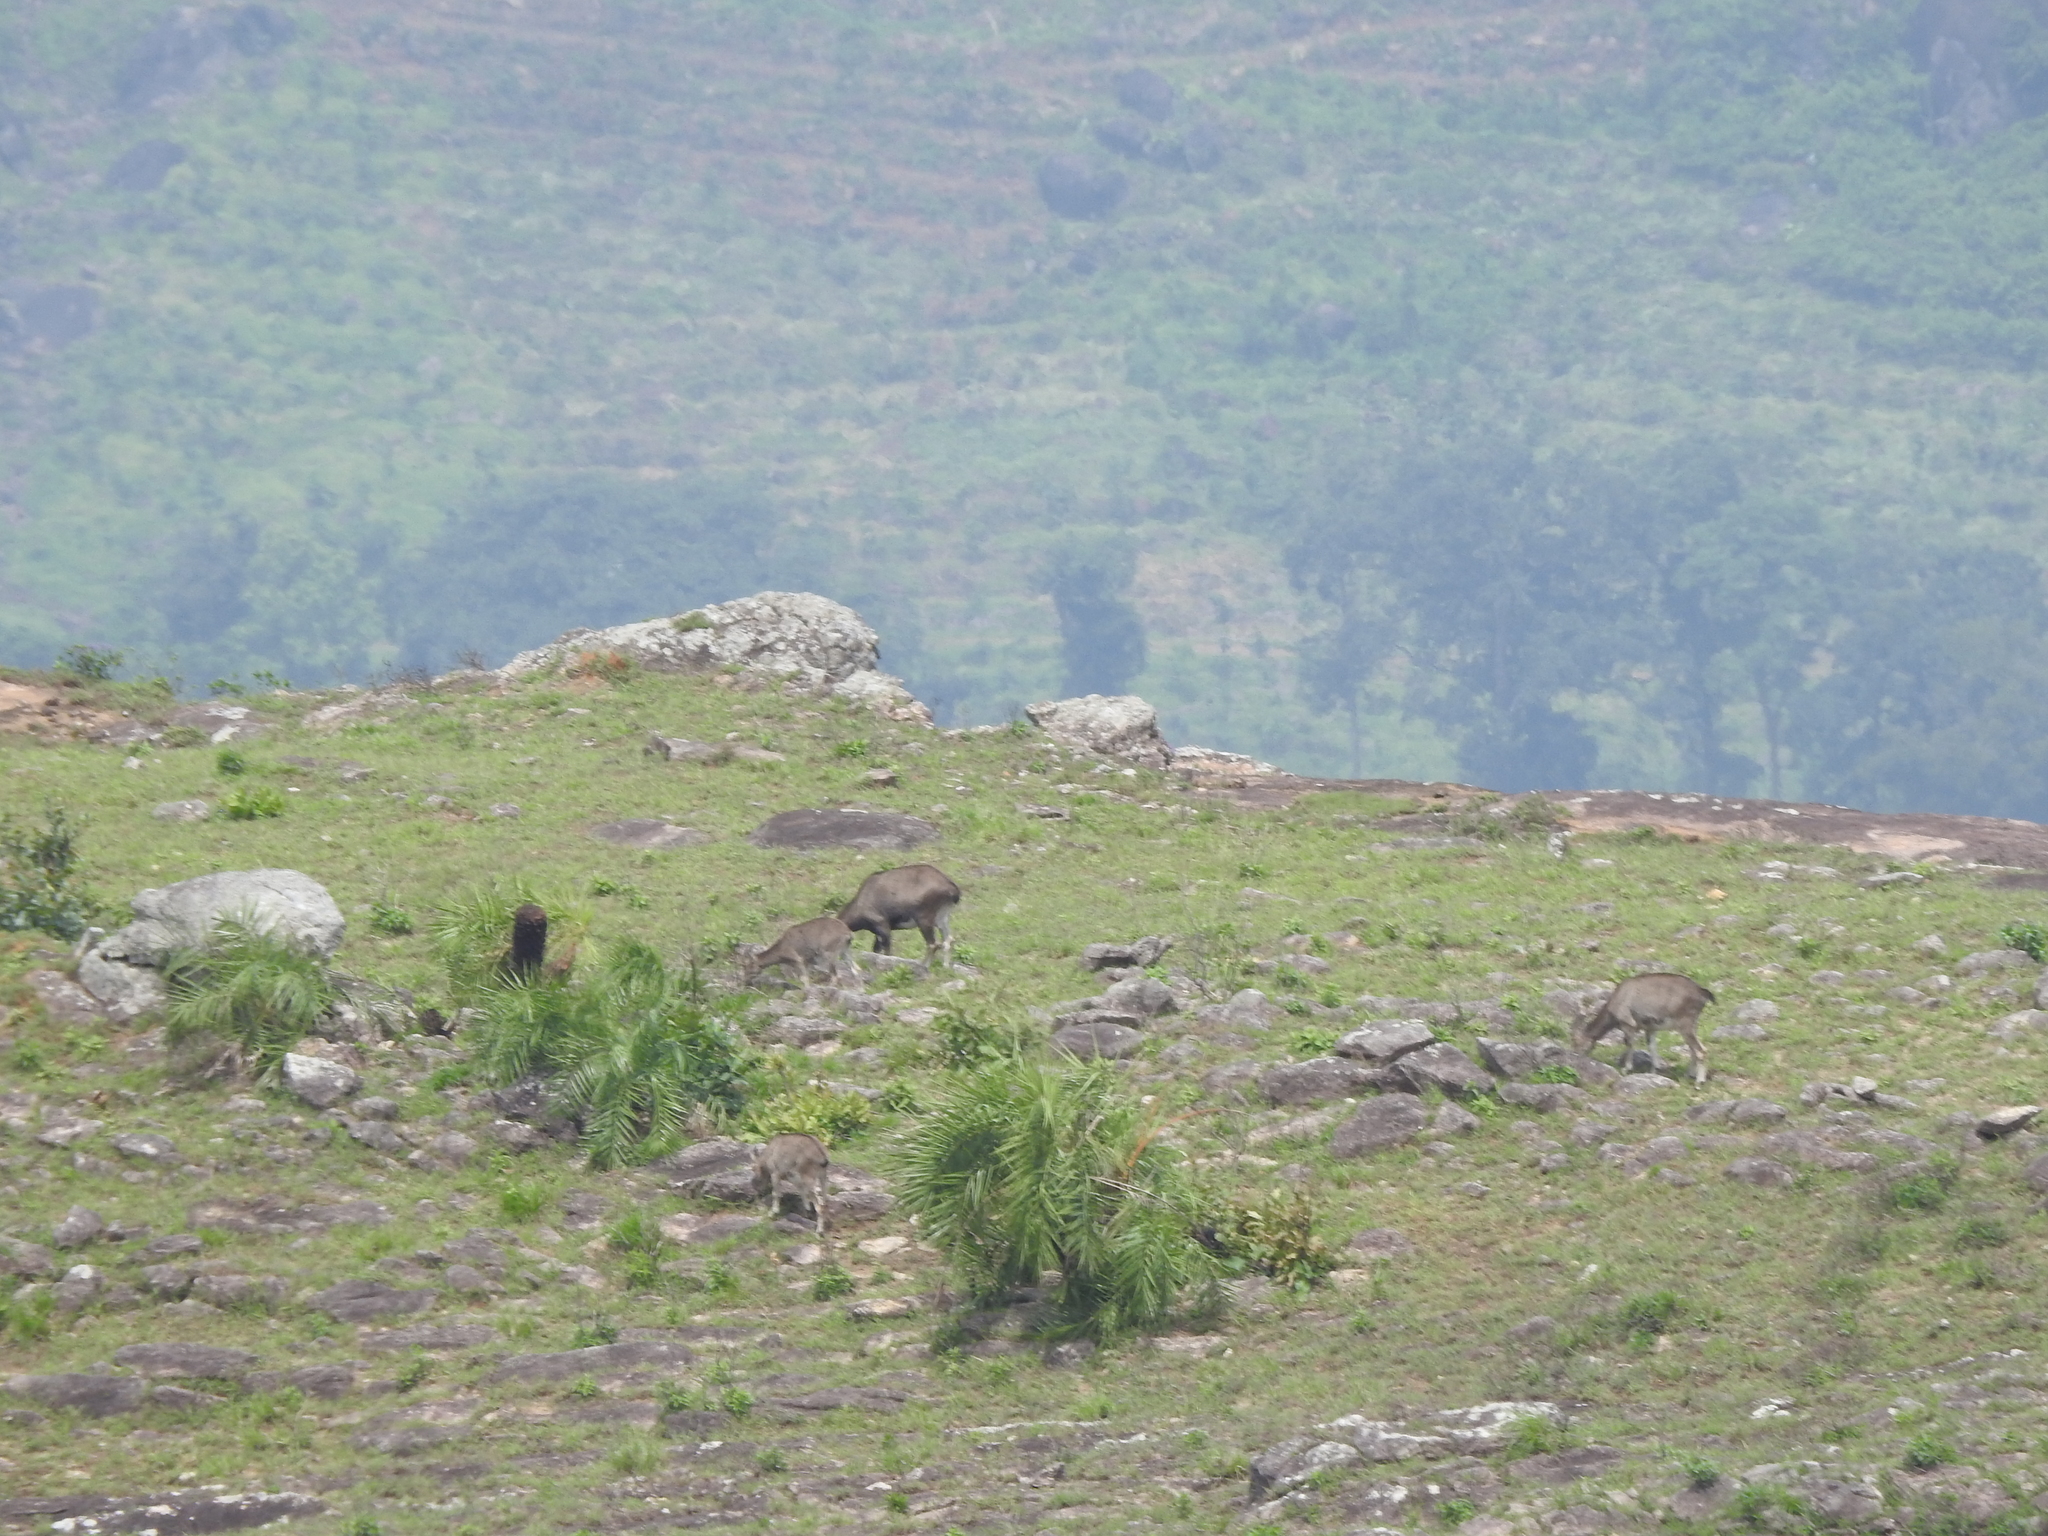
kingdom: Animalia
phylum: Chordata
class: Mammalia
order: Artiodactyla
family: Bovidae
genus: Hemitragus
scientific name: Hemitragus hylocrius
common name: Nilgiri tahr
